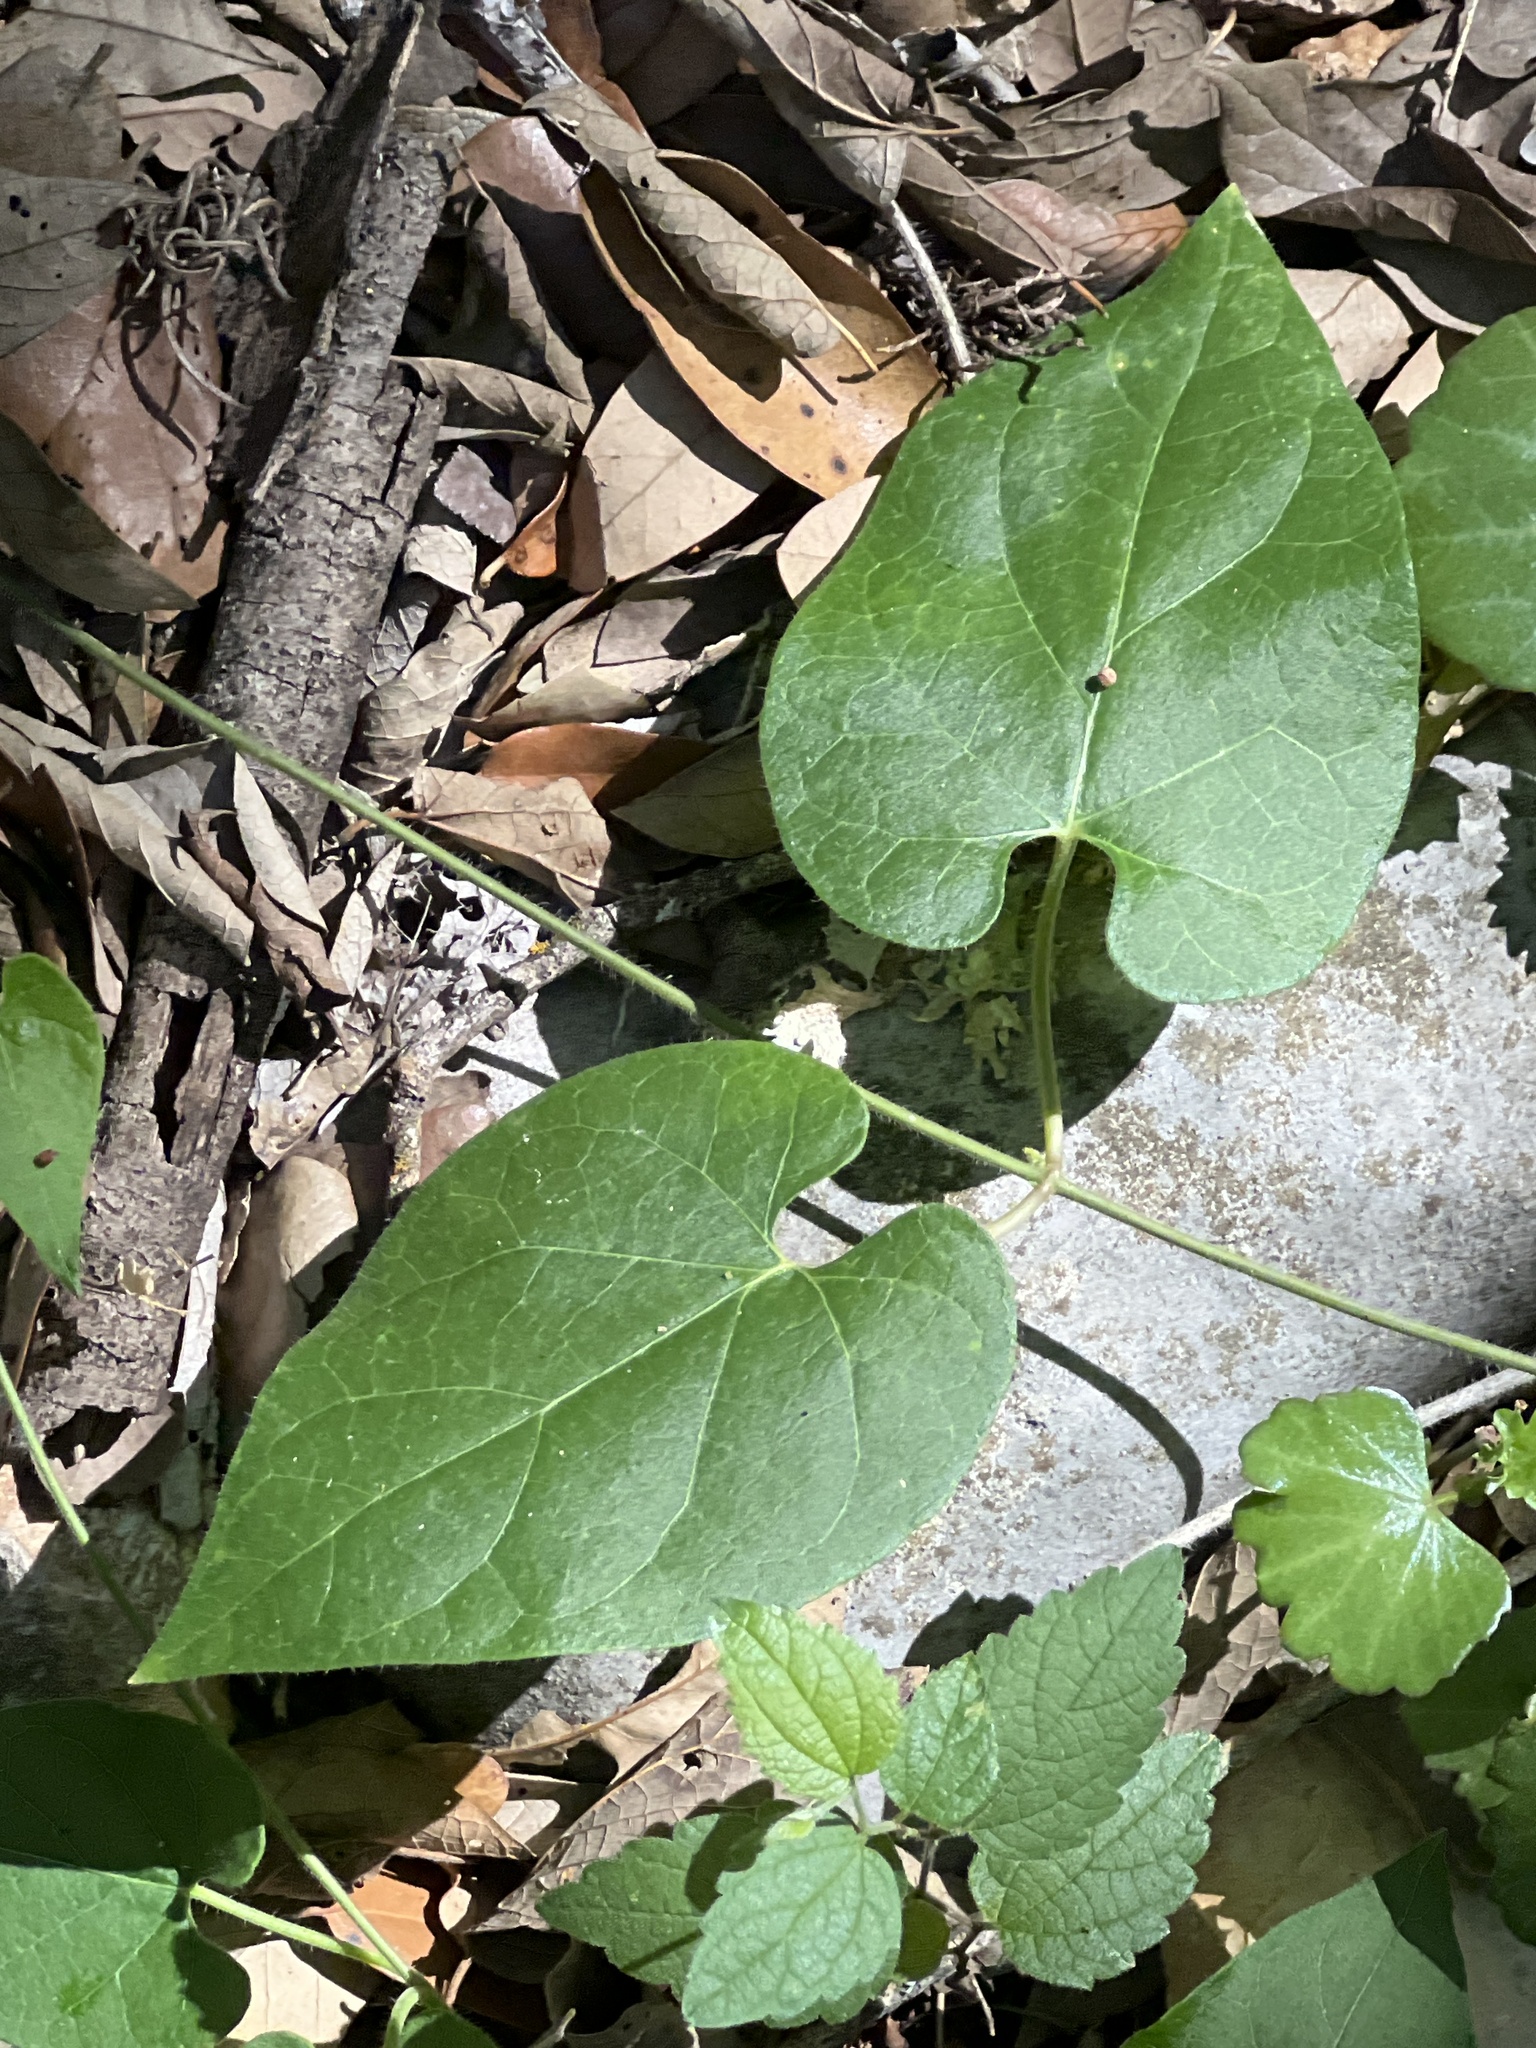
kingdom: Plantae
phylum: Tracheophyta
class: Magnoliopsida
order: Gentianales
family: Apocynaceae
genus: Dictyanthus
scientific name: Dictyanthus reticulatus
